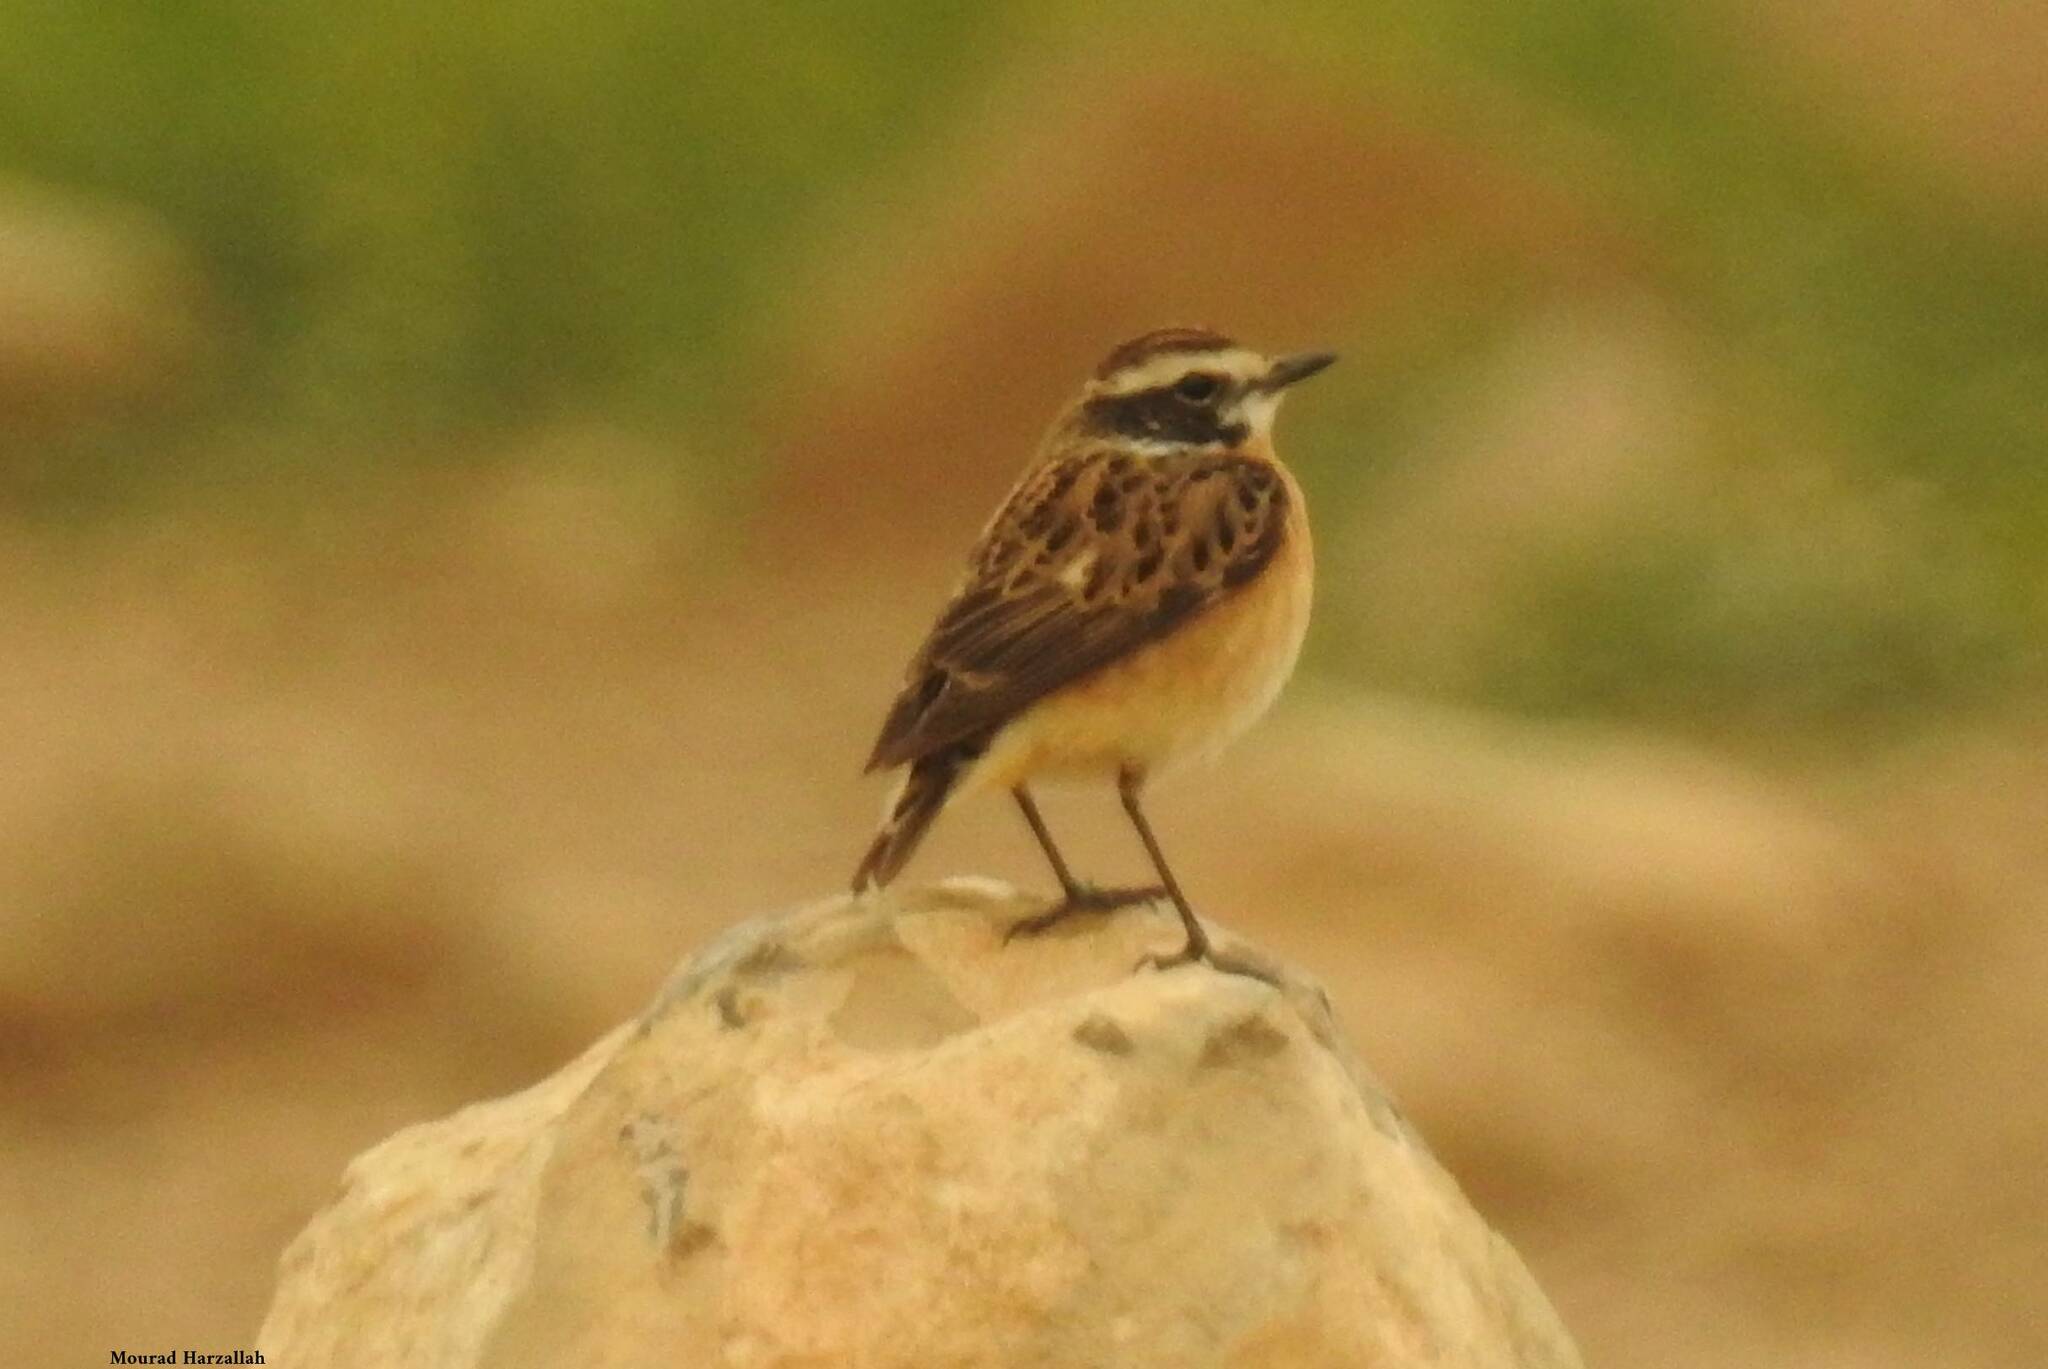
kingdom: Animalia
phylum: Chordata
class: Aves
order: Passeriformes
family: Muscicapidae
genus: Saxicola
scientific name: Saxicola rubetra
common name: Whinchat
